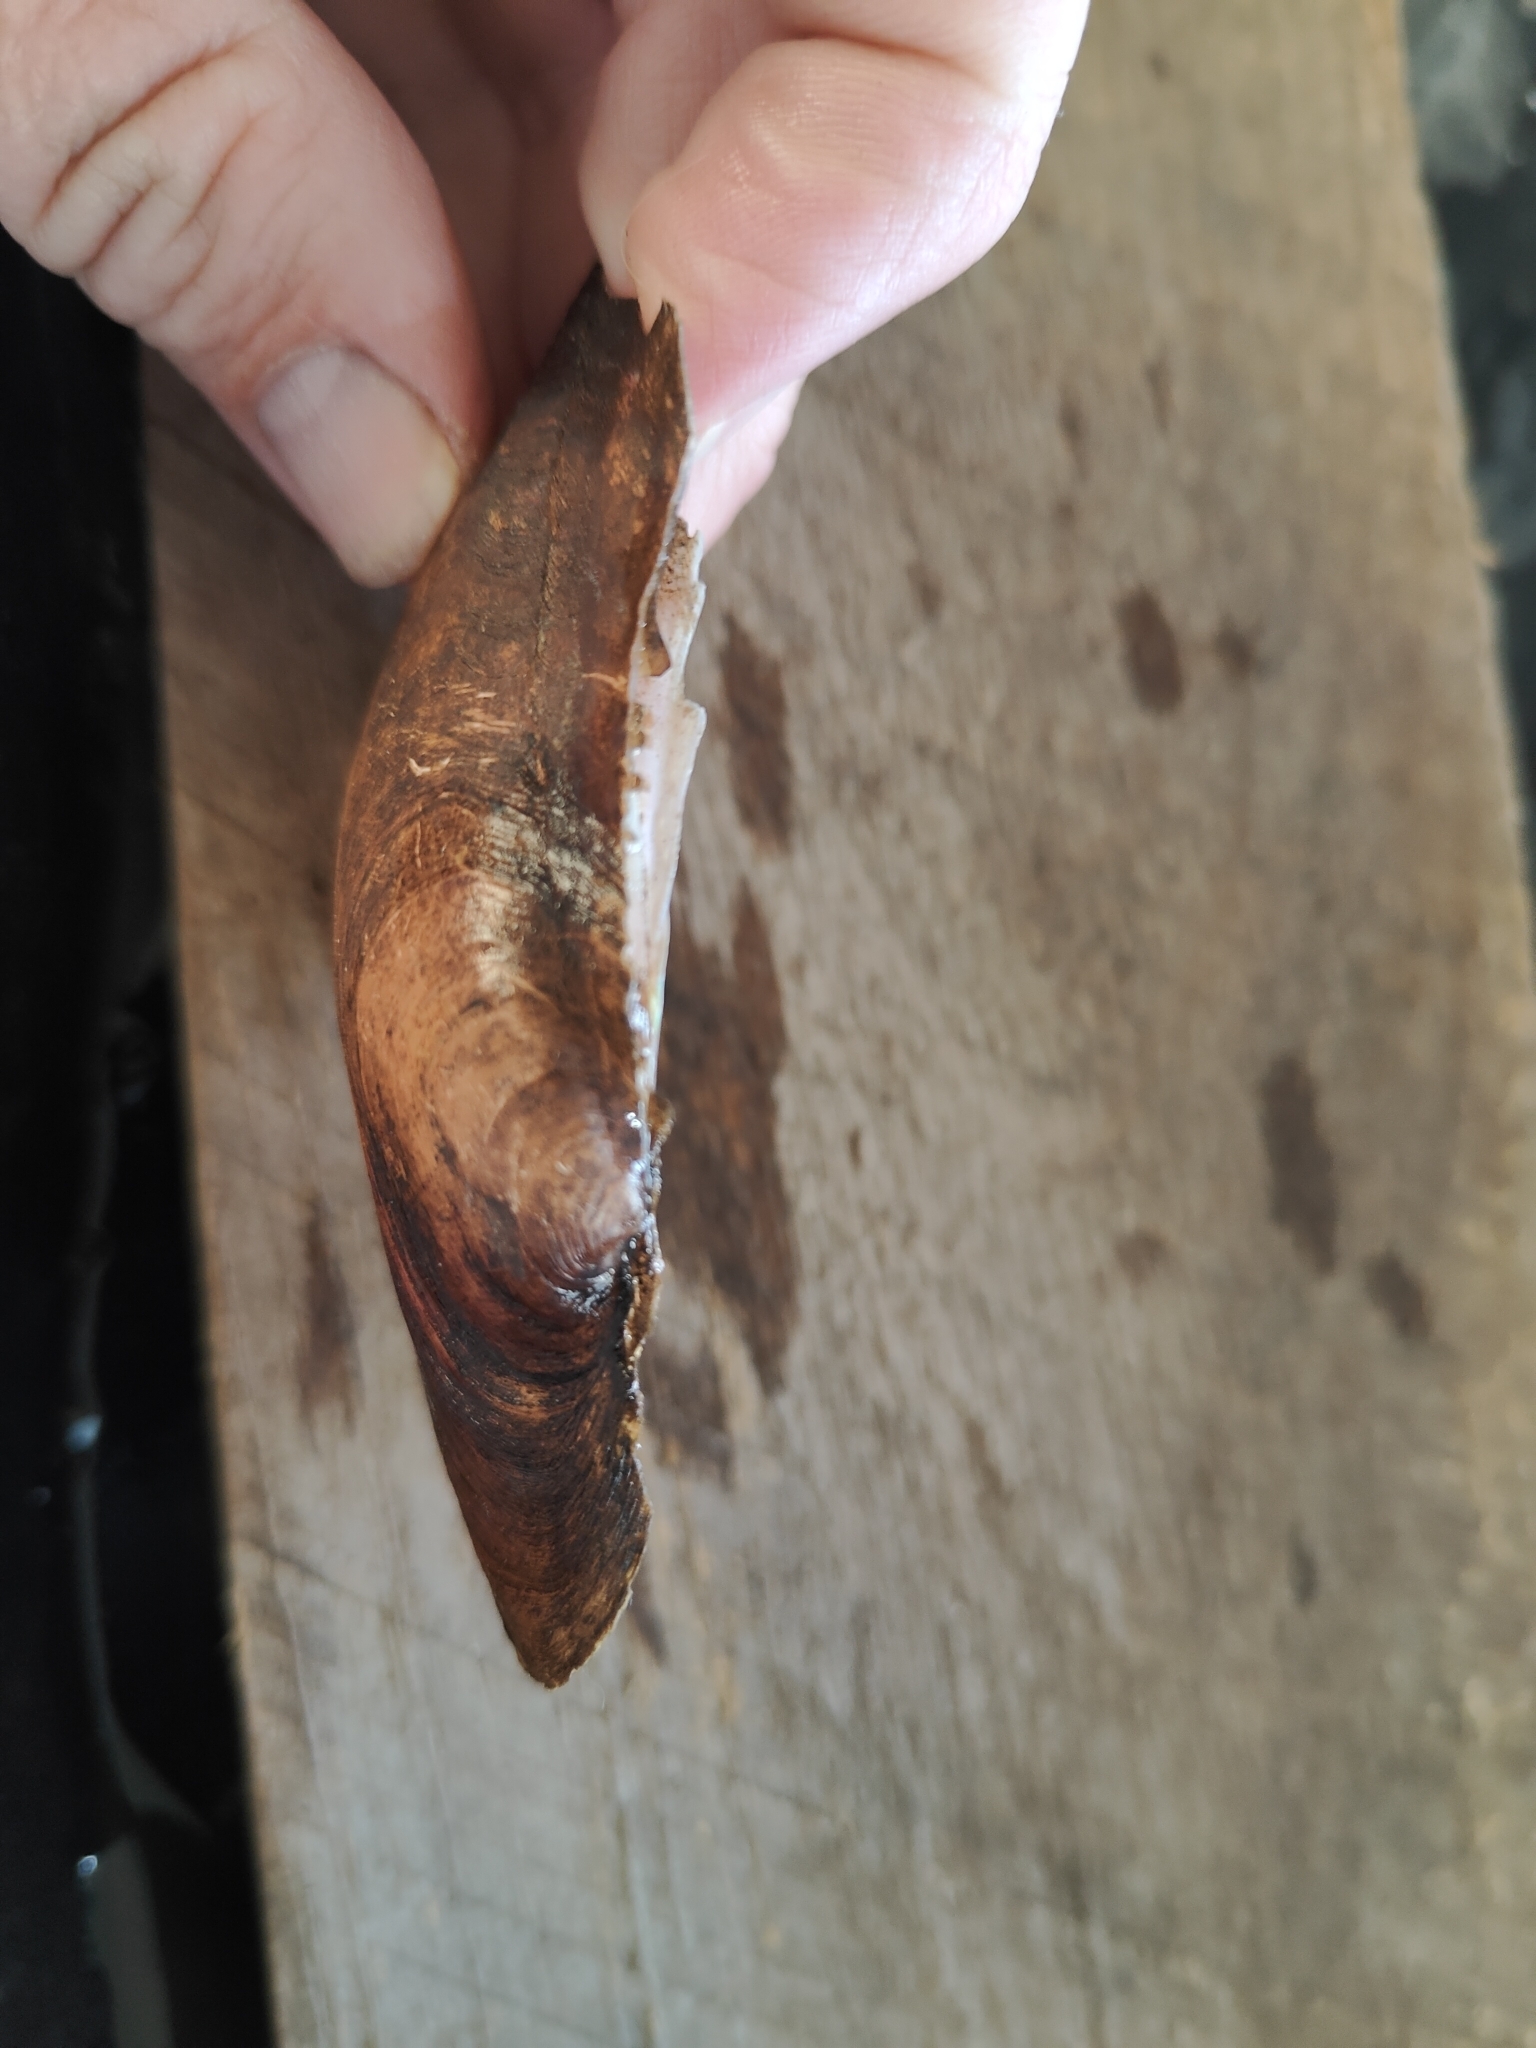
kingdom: Animalia
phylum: Mollusca
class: Bivalvia
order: Unionida
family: Unionidae
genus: Potamilus
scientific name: Potamilus alatus
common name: Pink heelsplitter
